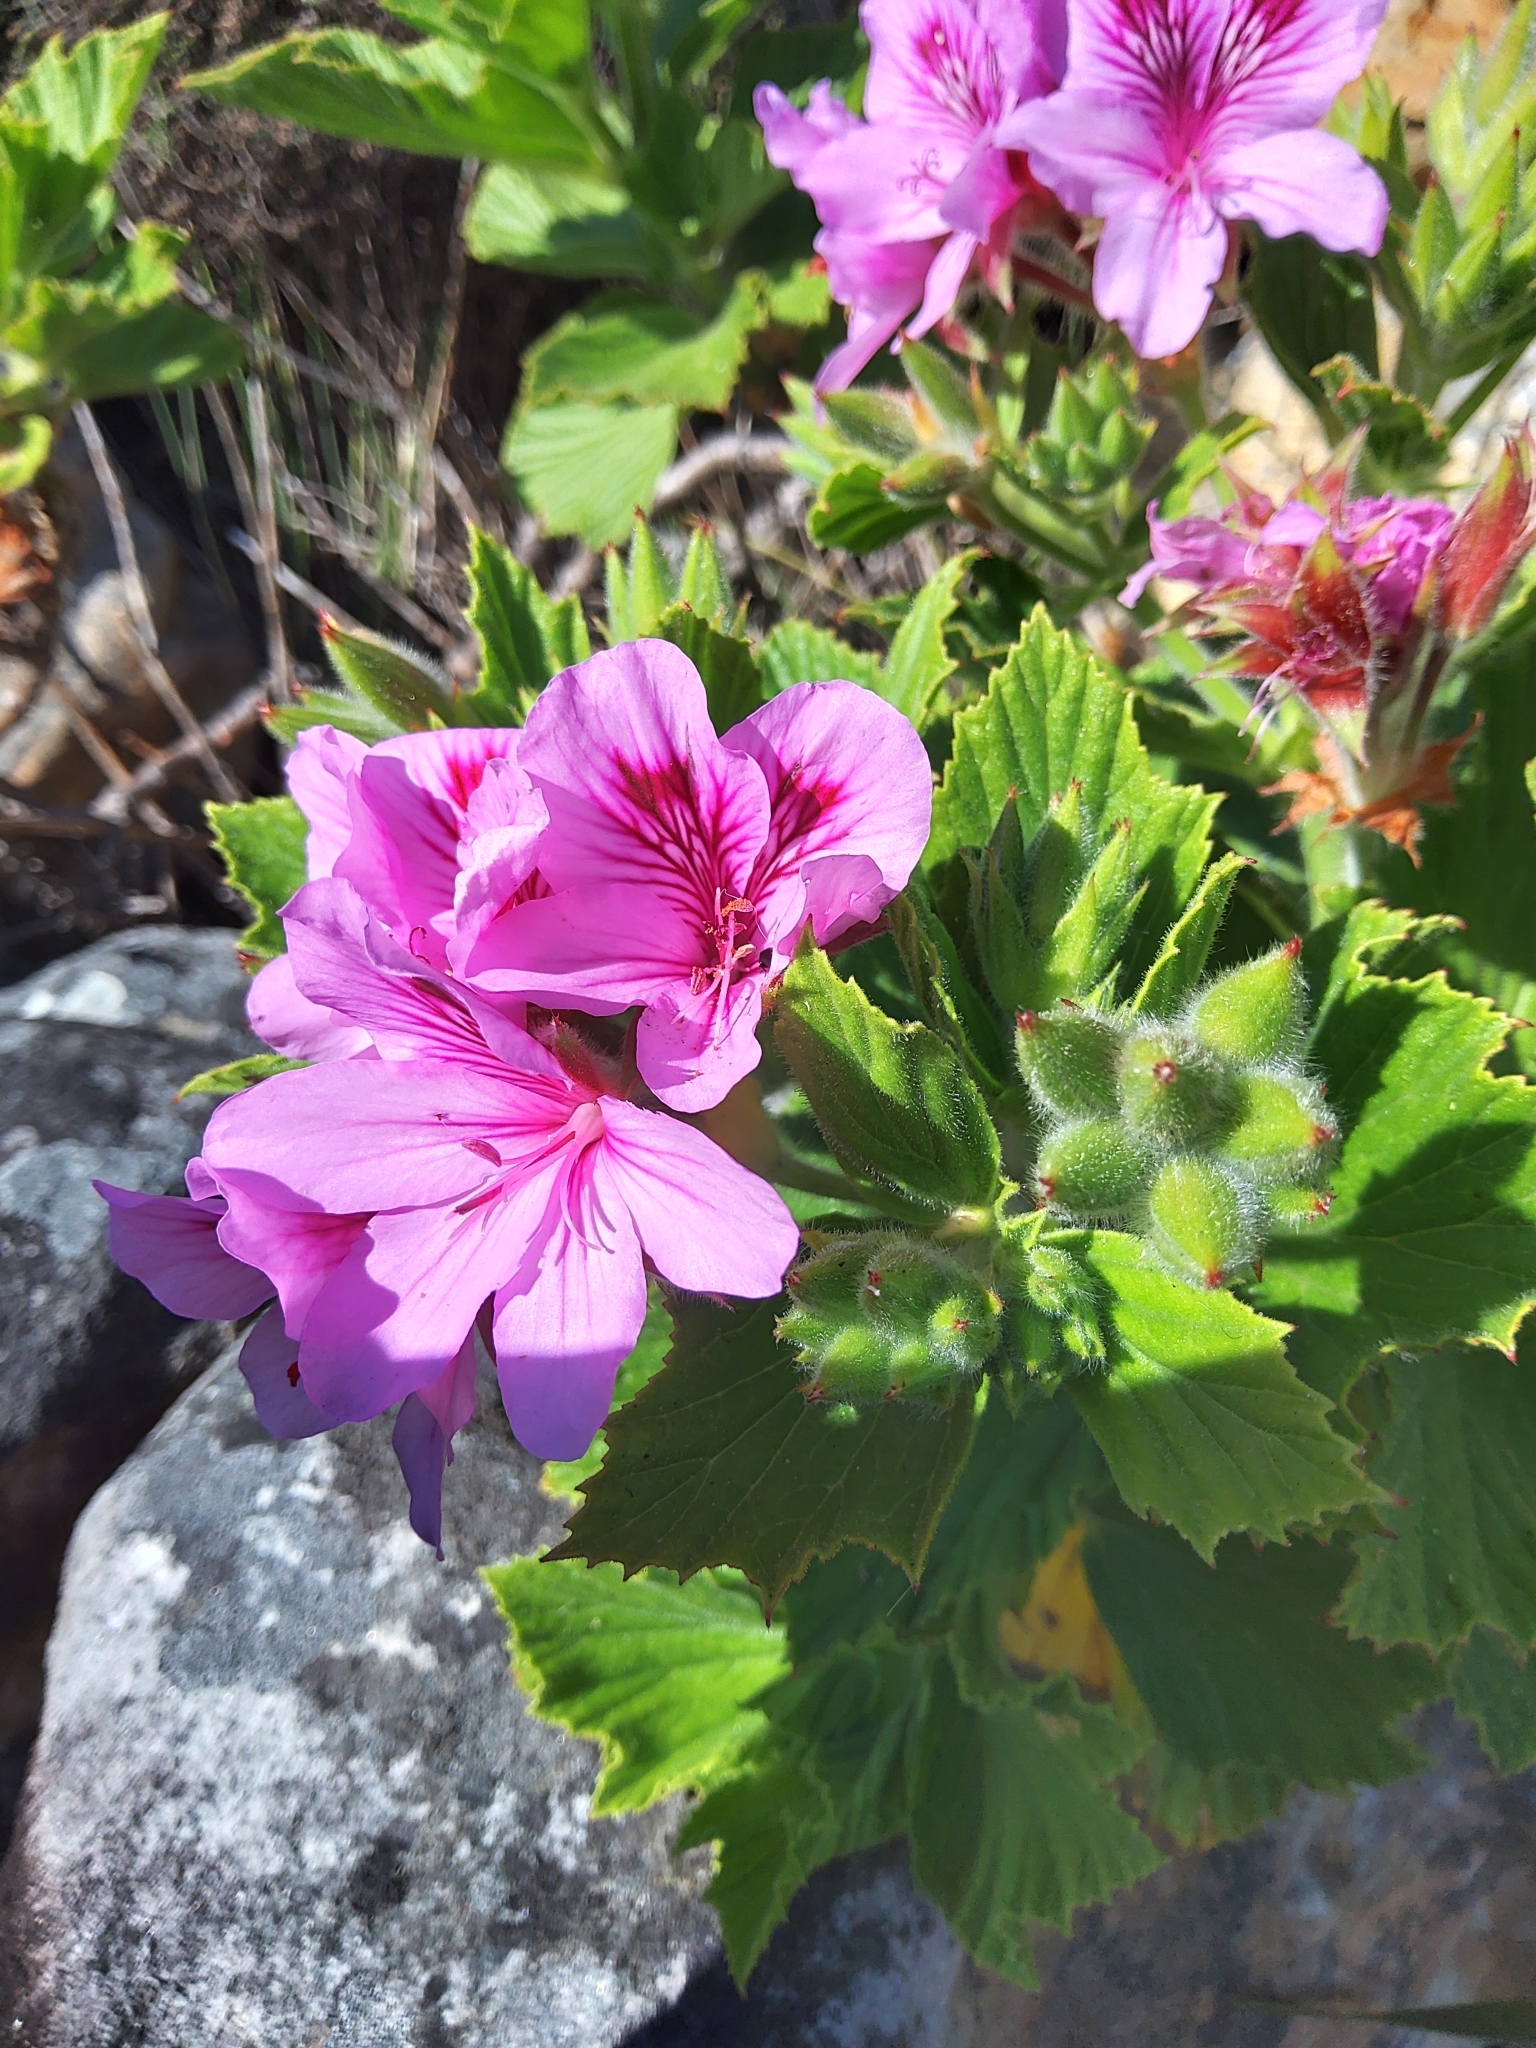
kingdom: Plantae
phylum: Tracheophyta
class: Magnoliopsida
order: Geraniales
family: Geraniaceae
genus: Pelargonium
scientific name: Pelargonium cucullatum
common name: Tree pelargonium
